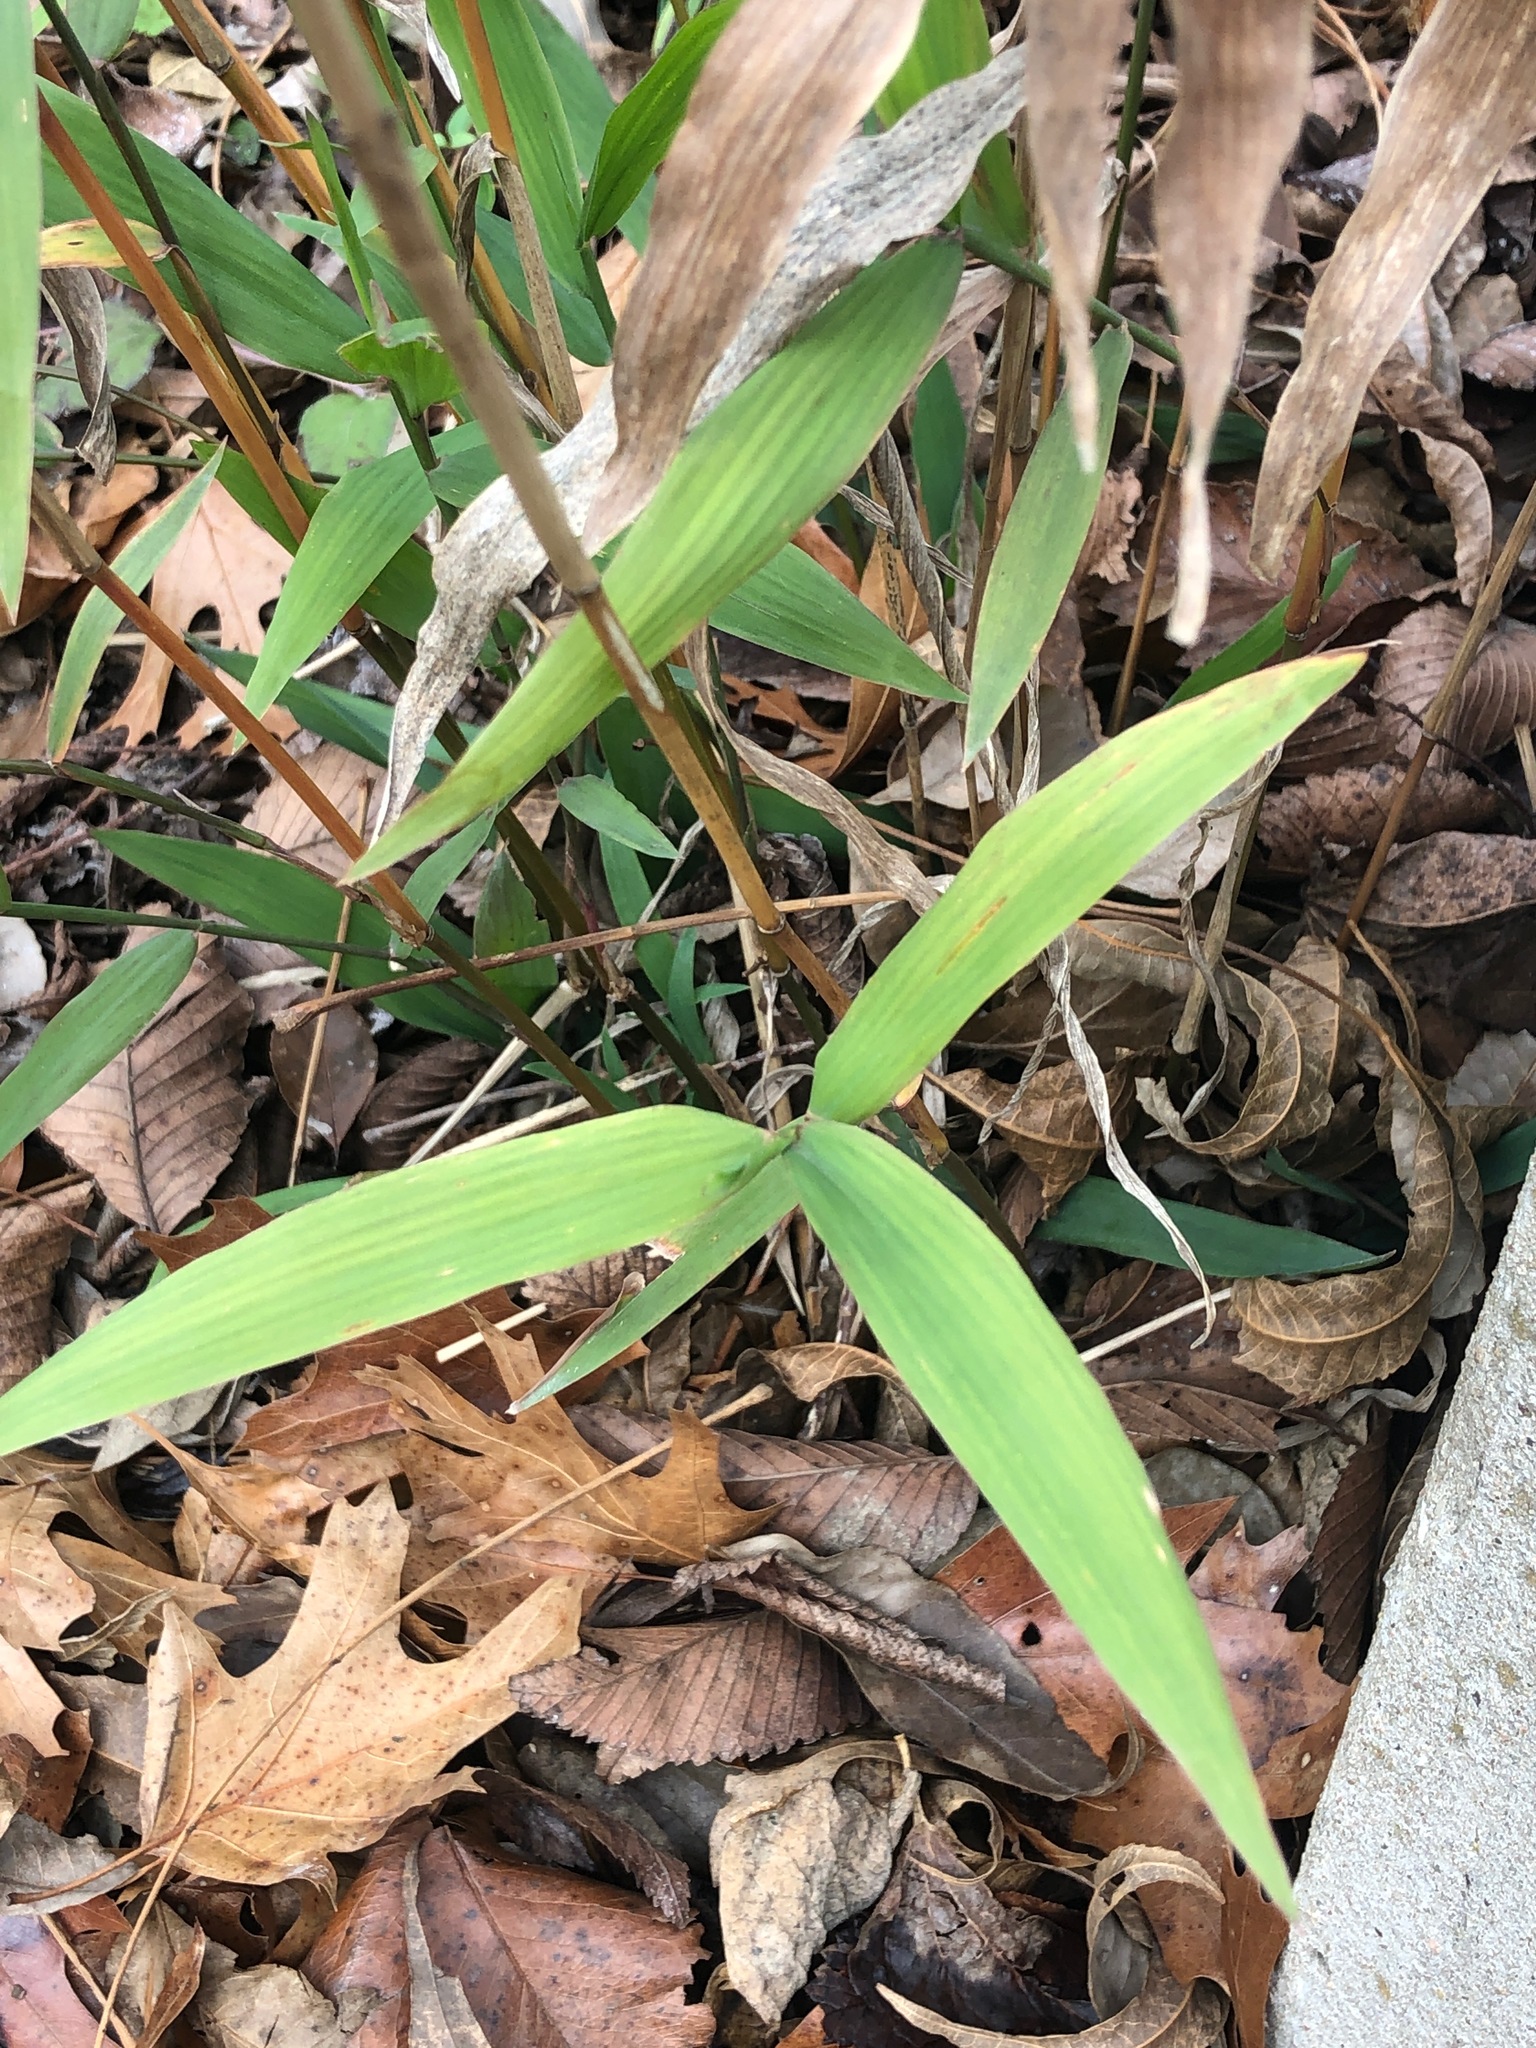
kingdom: Plantae
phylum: Tracheophyta
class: Liliopsida
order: Poales
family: Poaceae
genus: Chasmanthium
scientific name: Chasmanthium latifolium
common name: Broad-leaved chasmanthium
